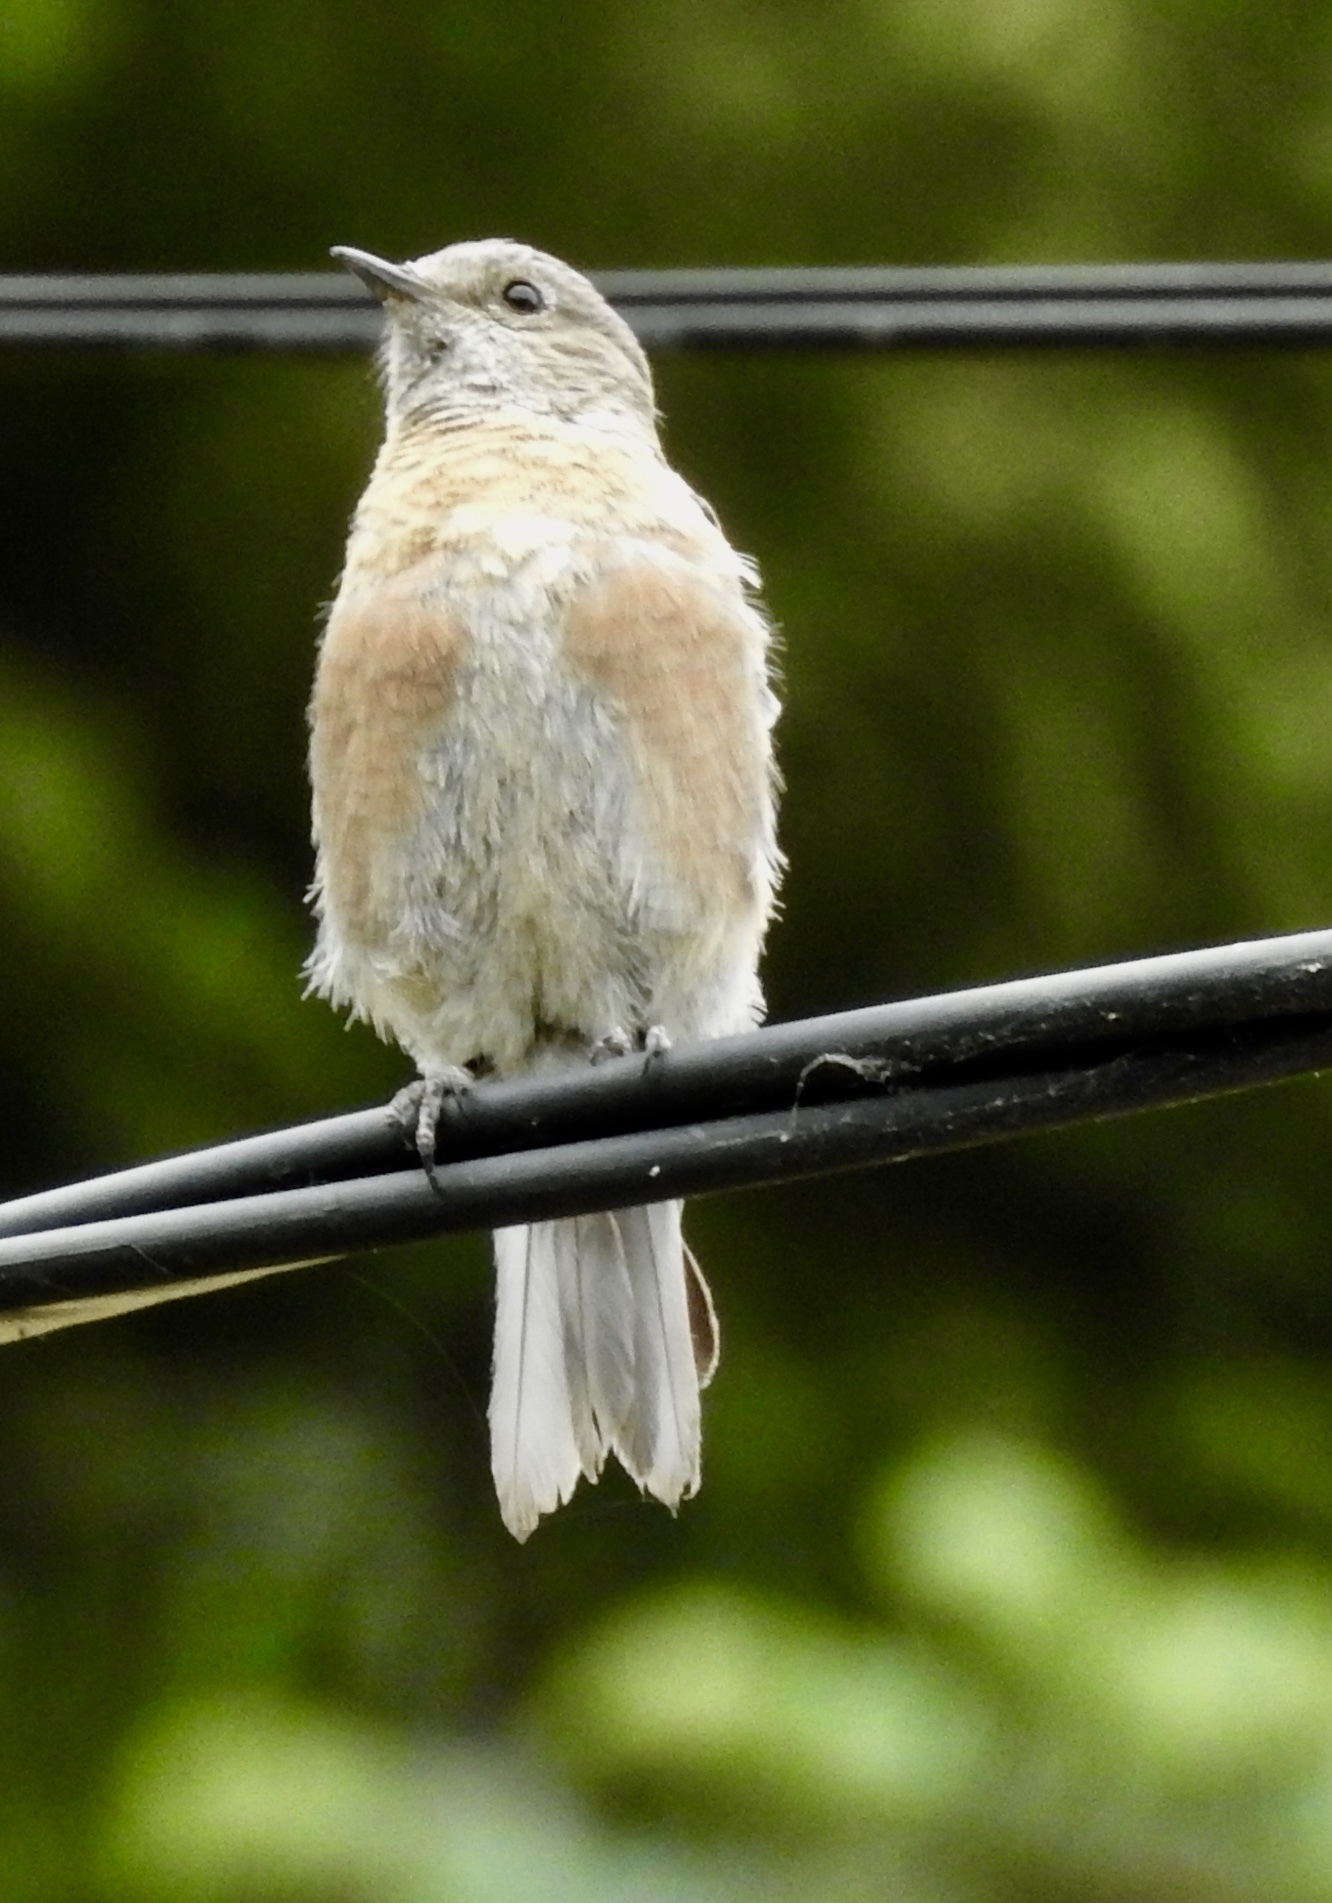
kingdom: Animalia
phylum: Chordata
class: Aves
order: Passeriformes
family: Turdidae
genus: Sialia
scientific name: Sialia mexicana
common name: Western bluebird
